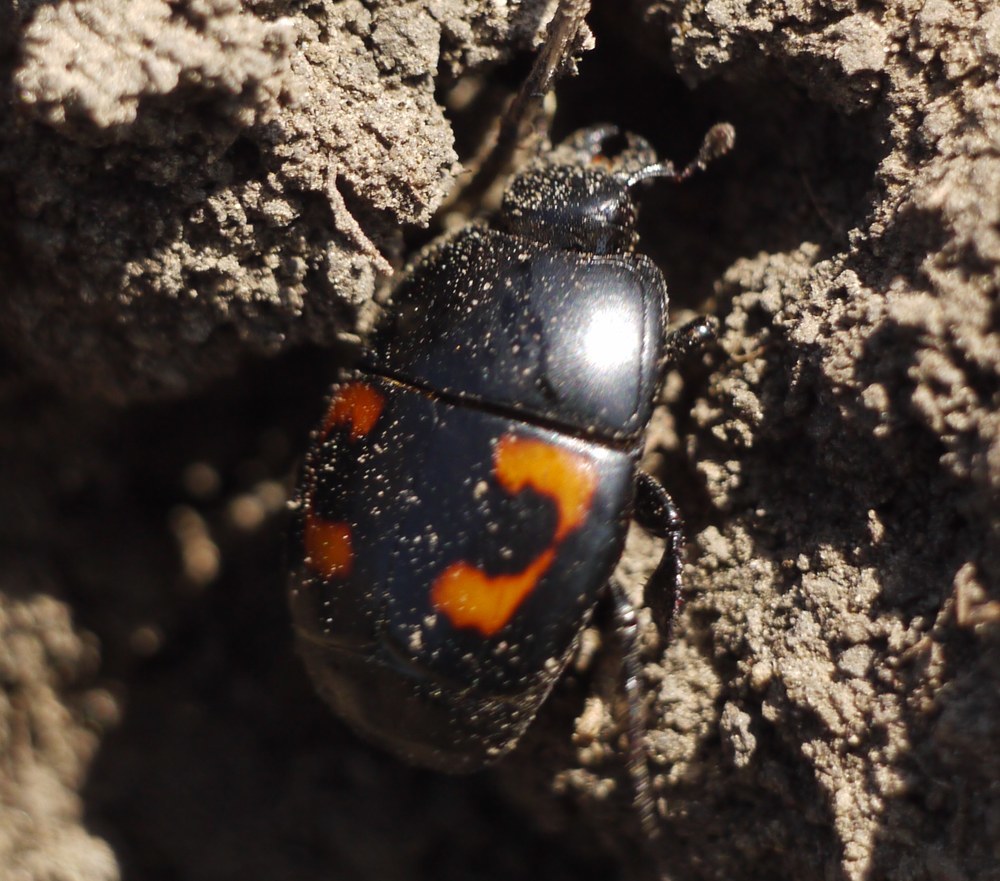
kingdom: Animalia
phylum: Arthropoda
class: Insecta
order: Coleoptera
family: Histeridae
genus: Hister
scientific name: Hister quadrimaculatus
